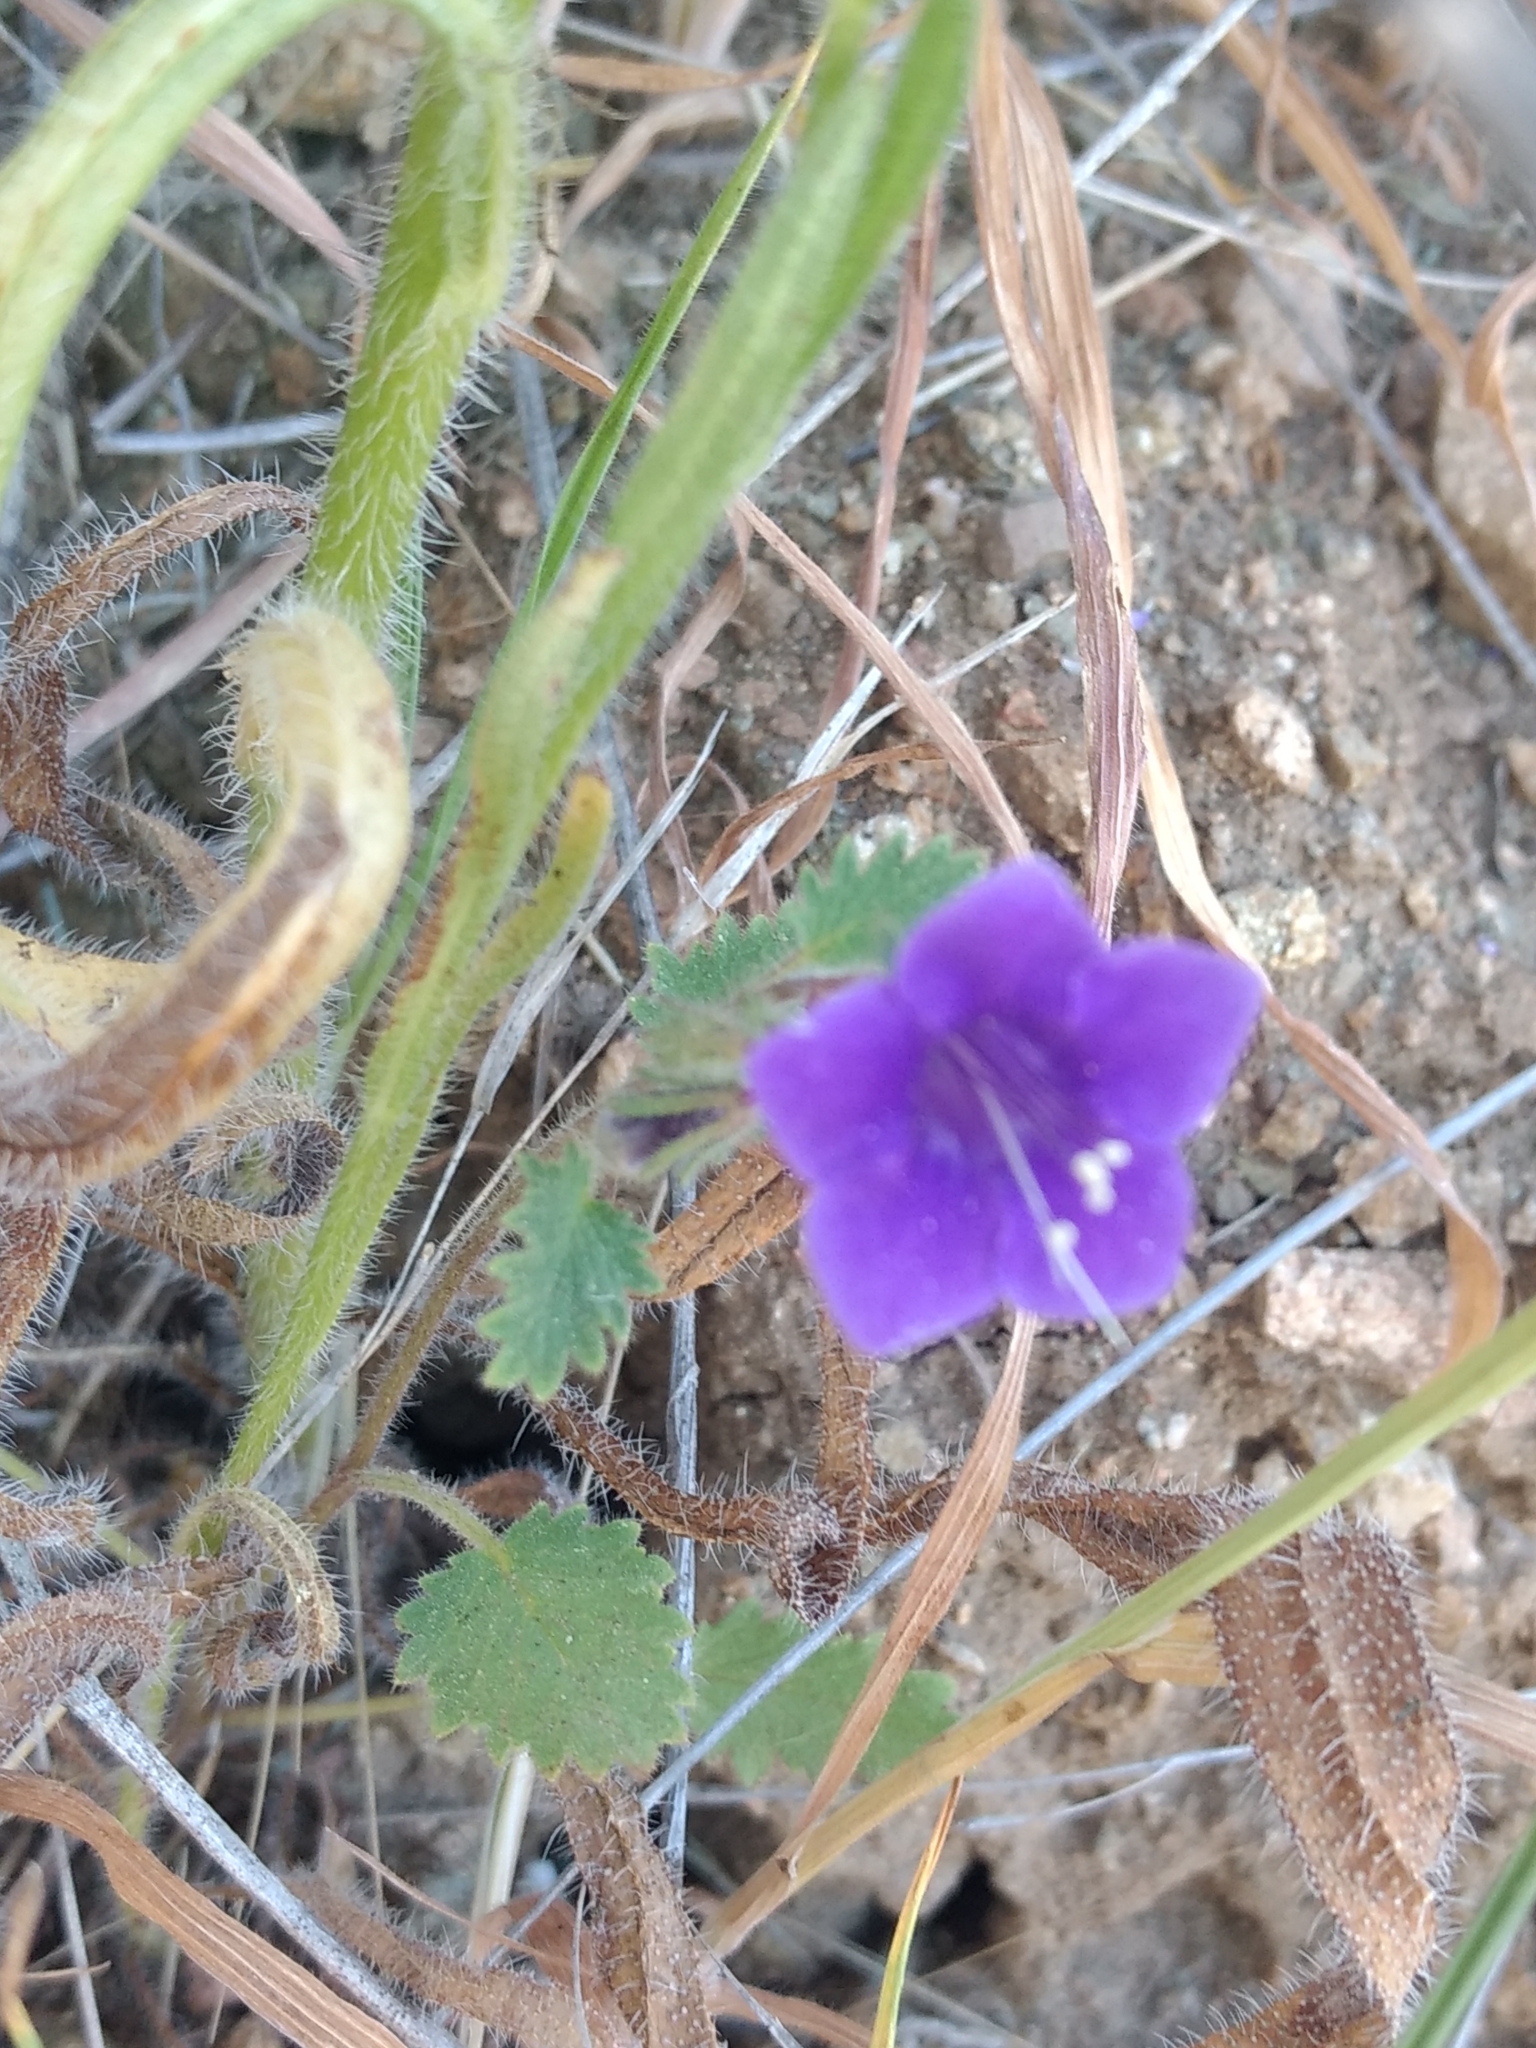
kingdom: Plantae
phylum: Tracheophyta
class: Magnoliopsida
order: Boraginales
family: Hydrophyllaceae
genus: Phacelia
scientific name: Phacelia minor
